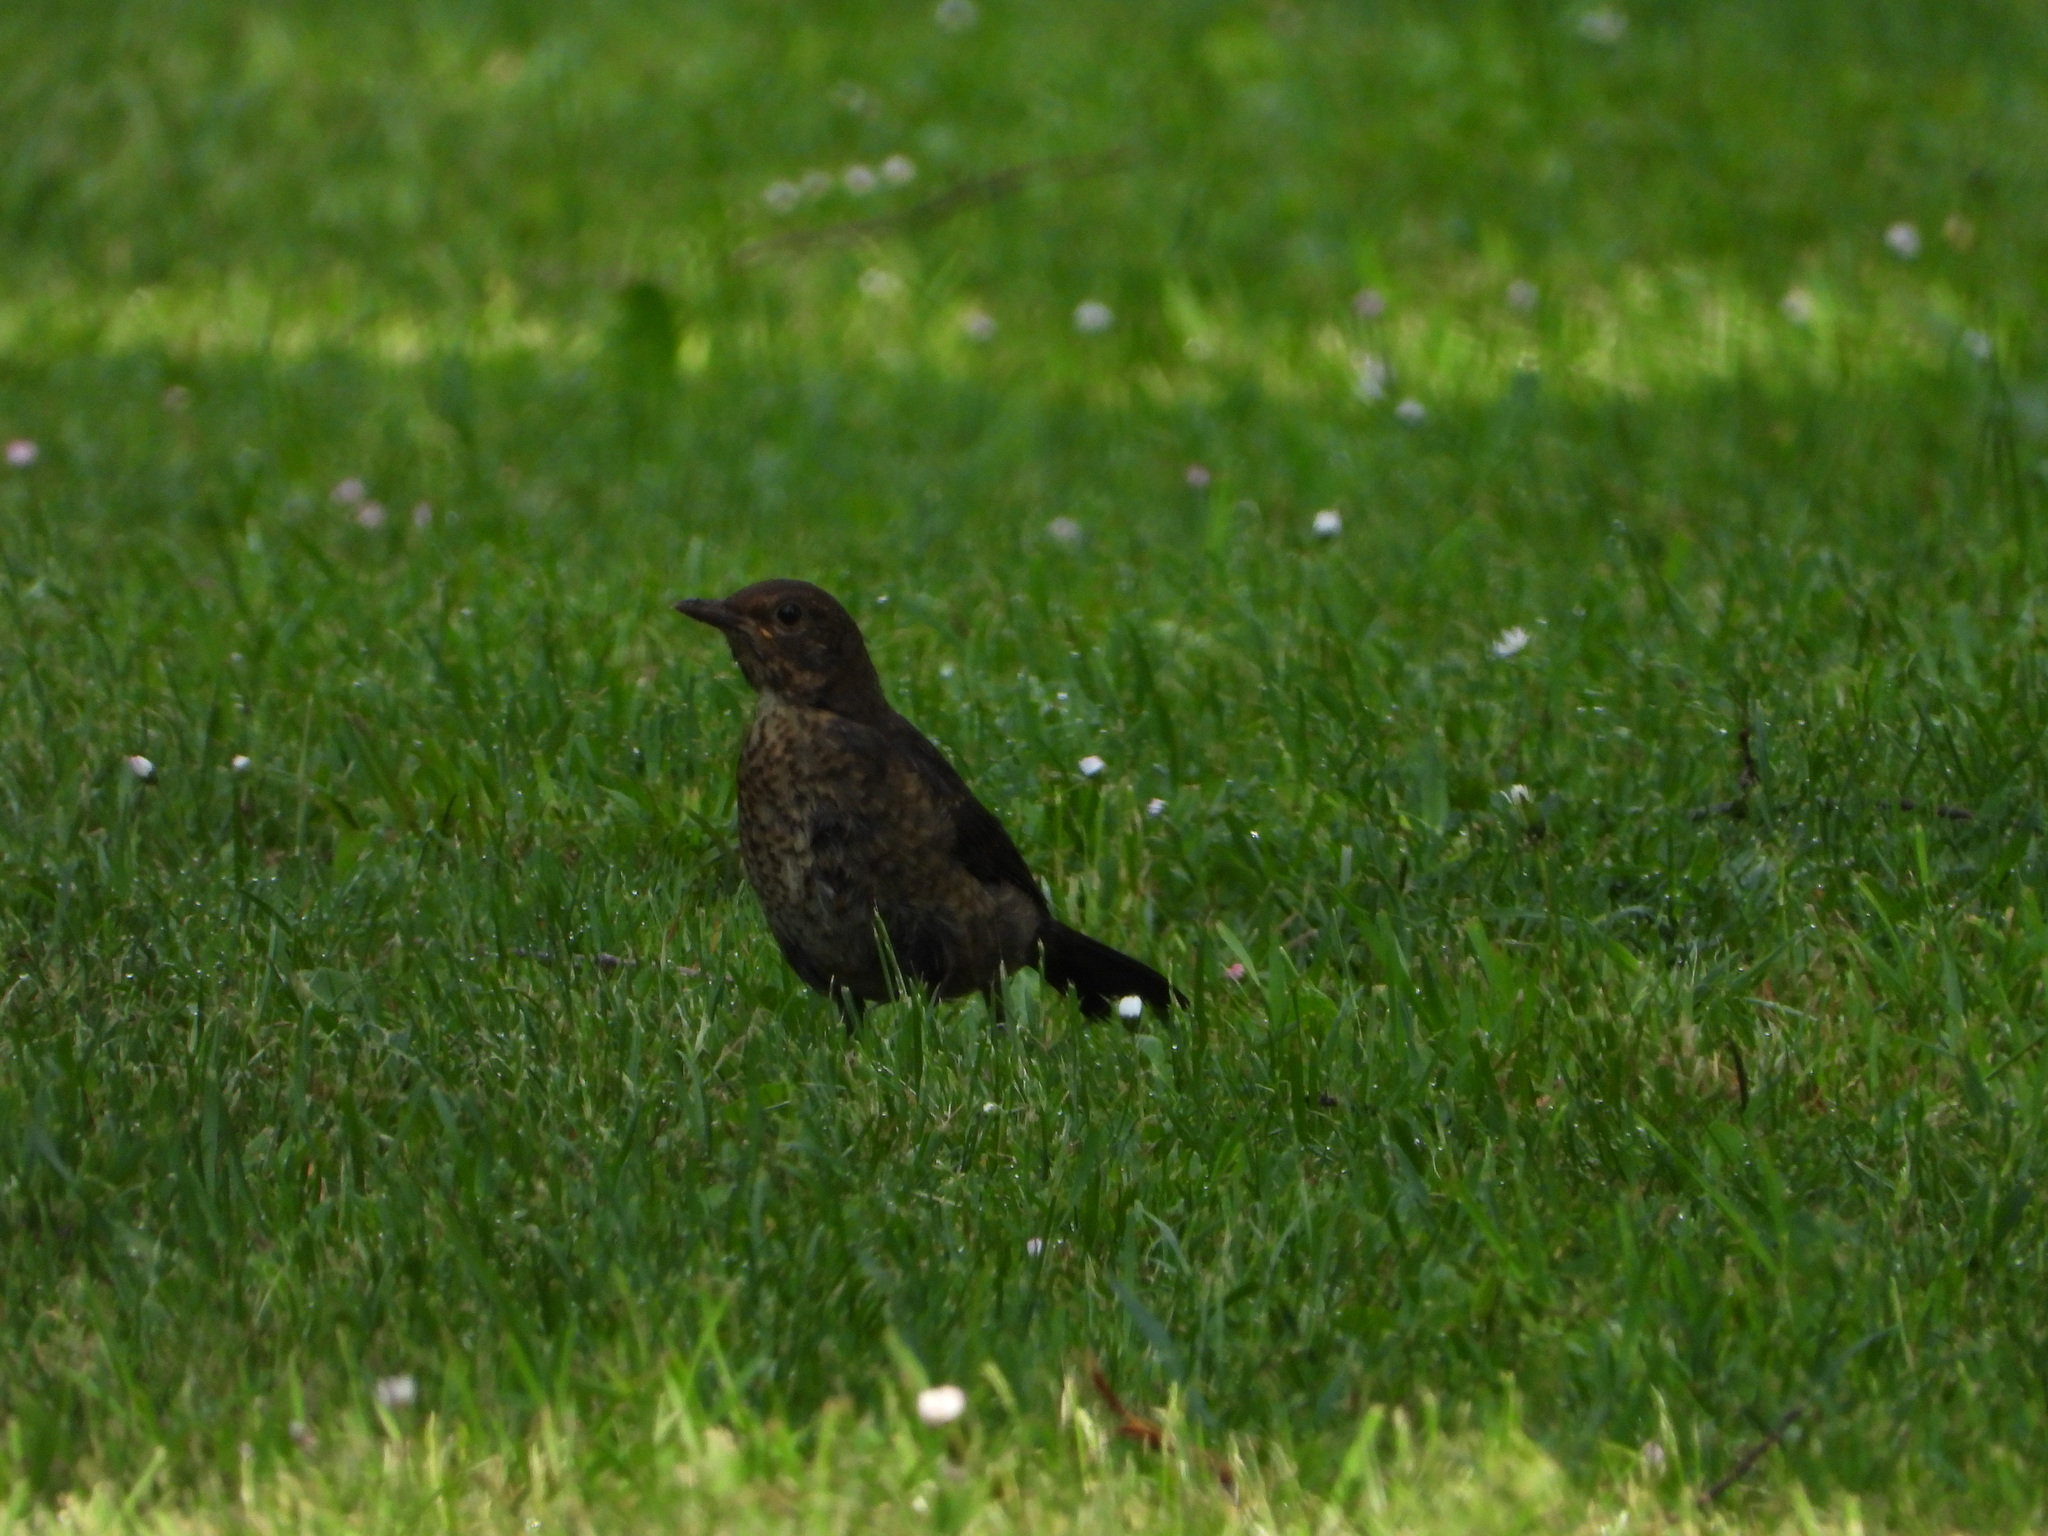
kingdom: Animalia
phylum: Chordata
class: Aves
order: Passeriformes
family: Turdidae
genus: Turdus
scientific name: Turdus merula
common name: Common blackbird
